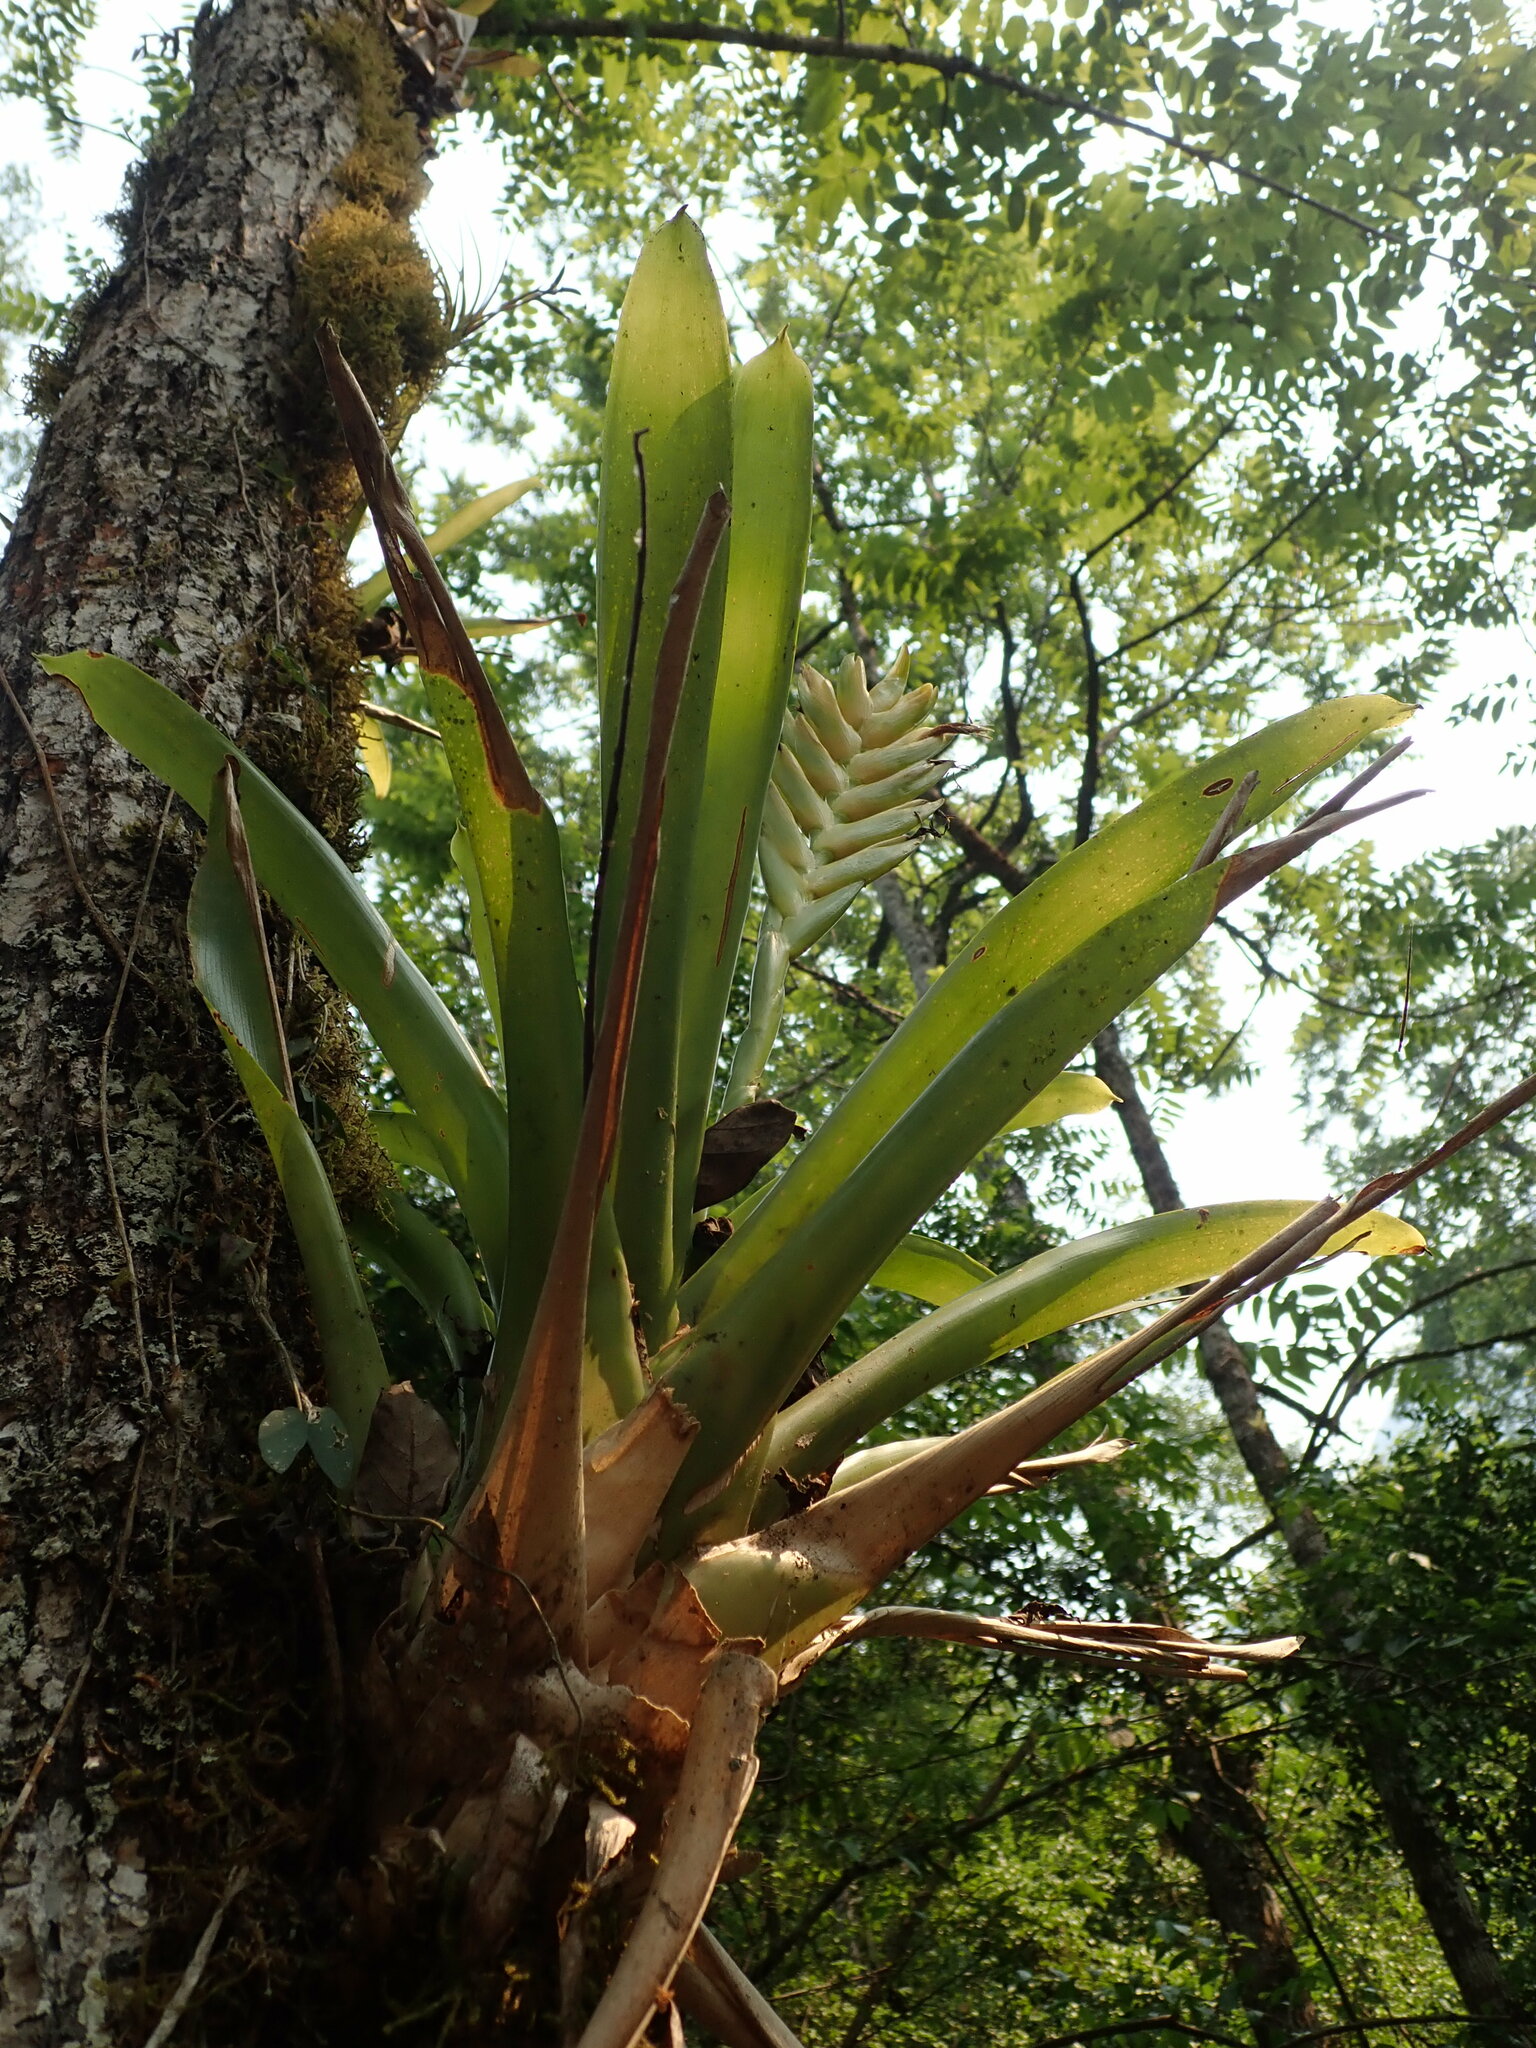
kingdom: Plantae
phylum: Tracheophyta
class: Liliopsida
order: Poales
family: Bromeliaceae
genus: Vriesea
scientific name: Vriesea maxoniana
